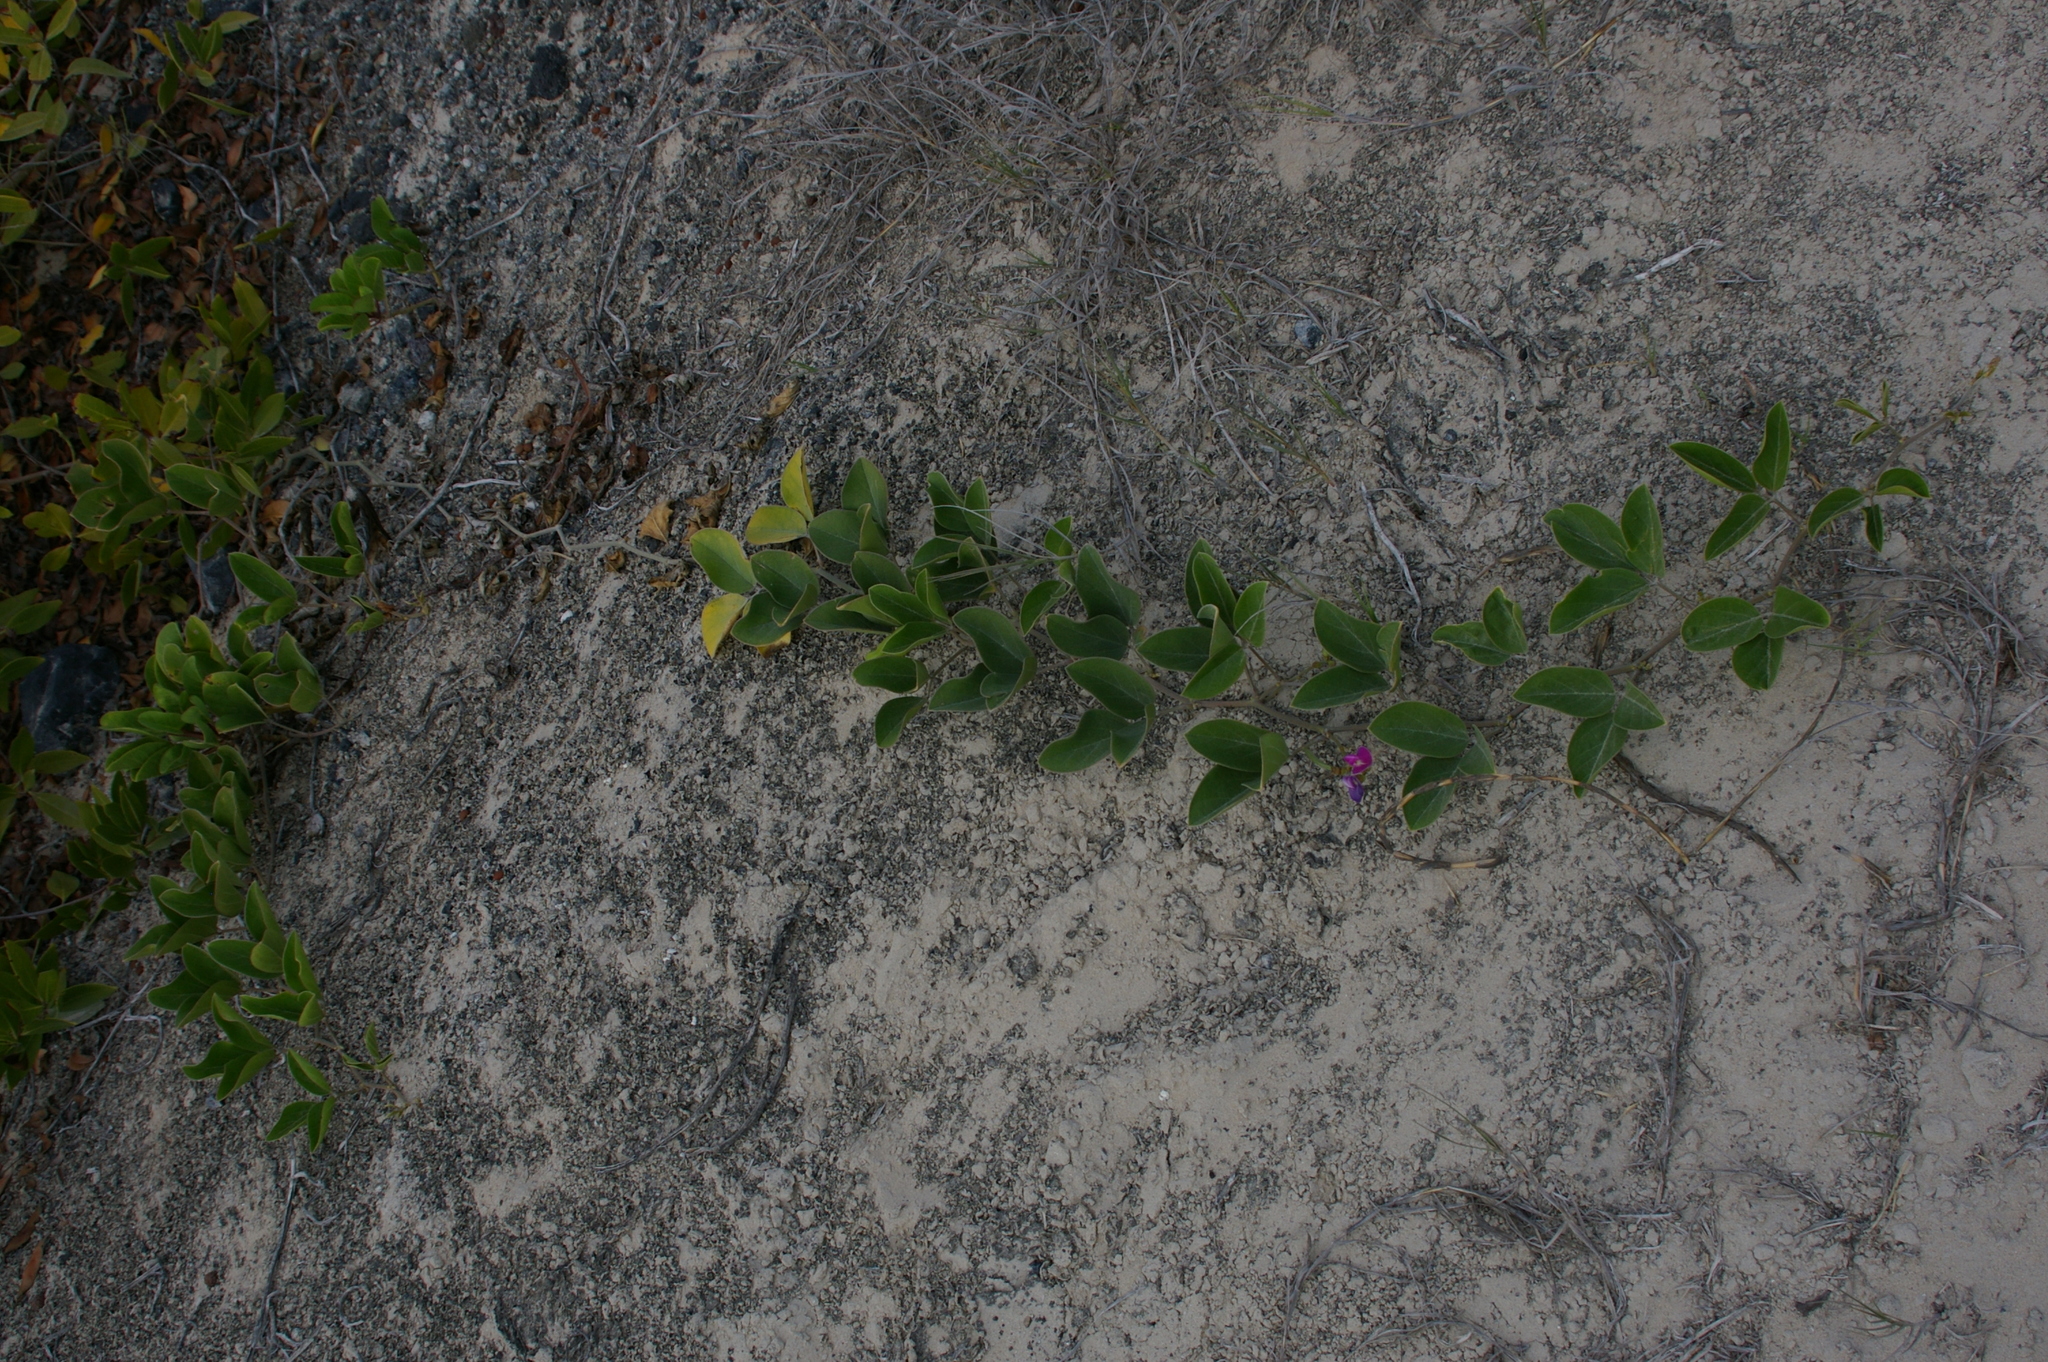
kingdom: Plantae
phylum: Tracheophyta
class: Magnoliopsida
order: Fabales
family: Fabaceae
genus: Canavalia
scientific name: Canavalia rosea
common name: Beach-bean
